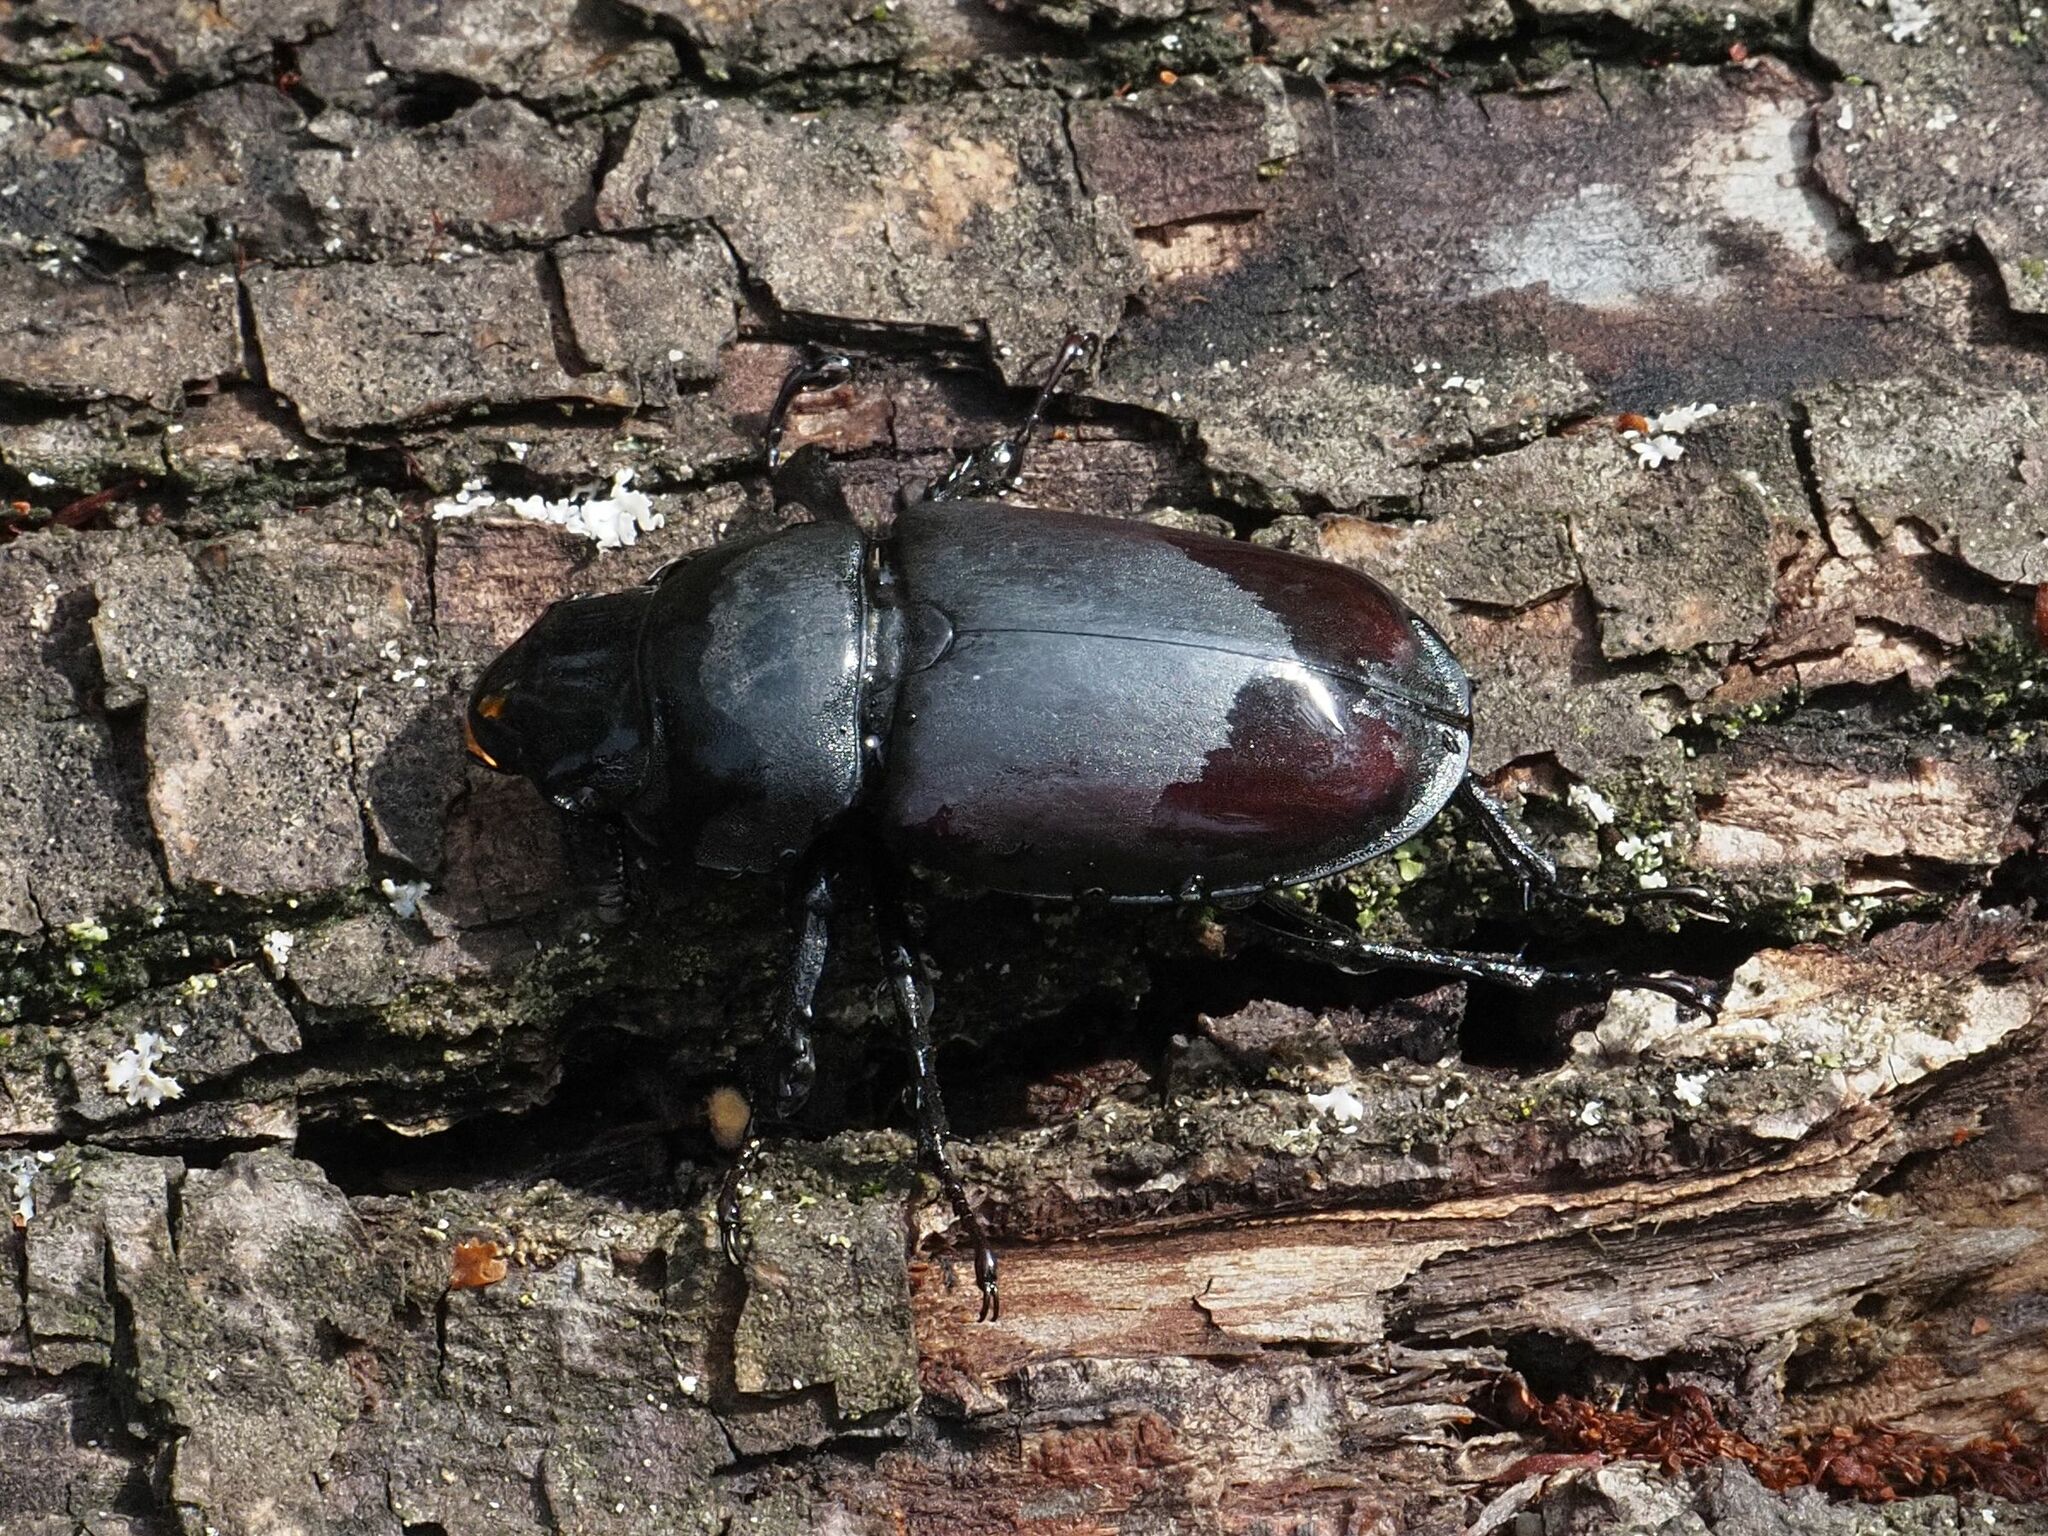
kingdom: Animalia
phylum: Arthropoda
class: Insecta
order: Coleoptera
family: Lucanidae
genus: Lucanus
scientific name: Lucanus cervus
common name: Stag beetle
